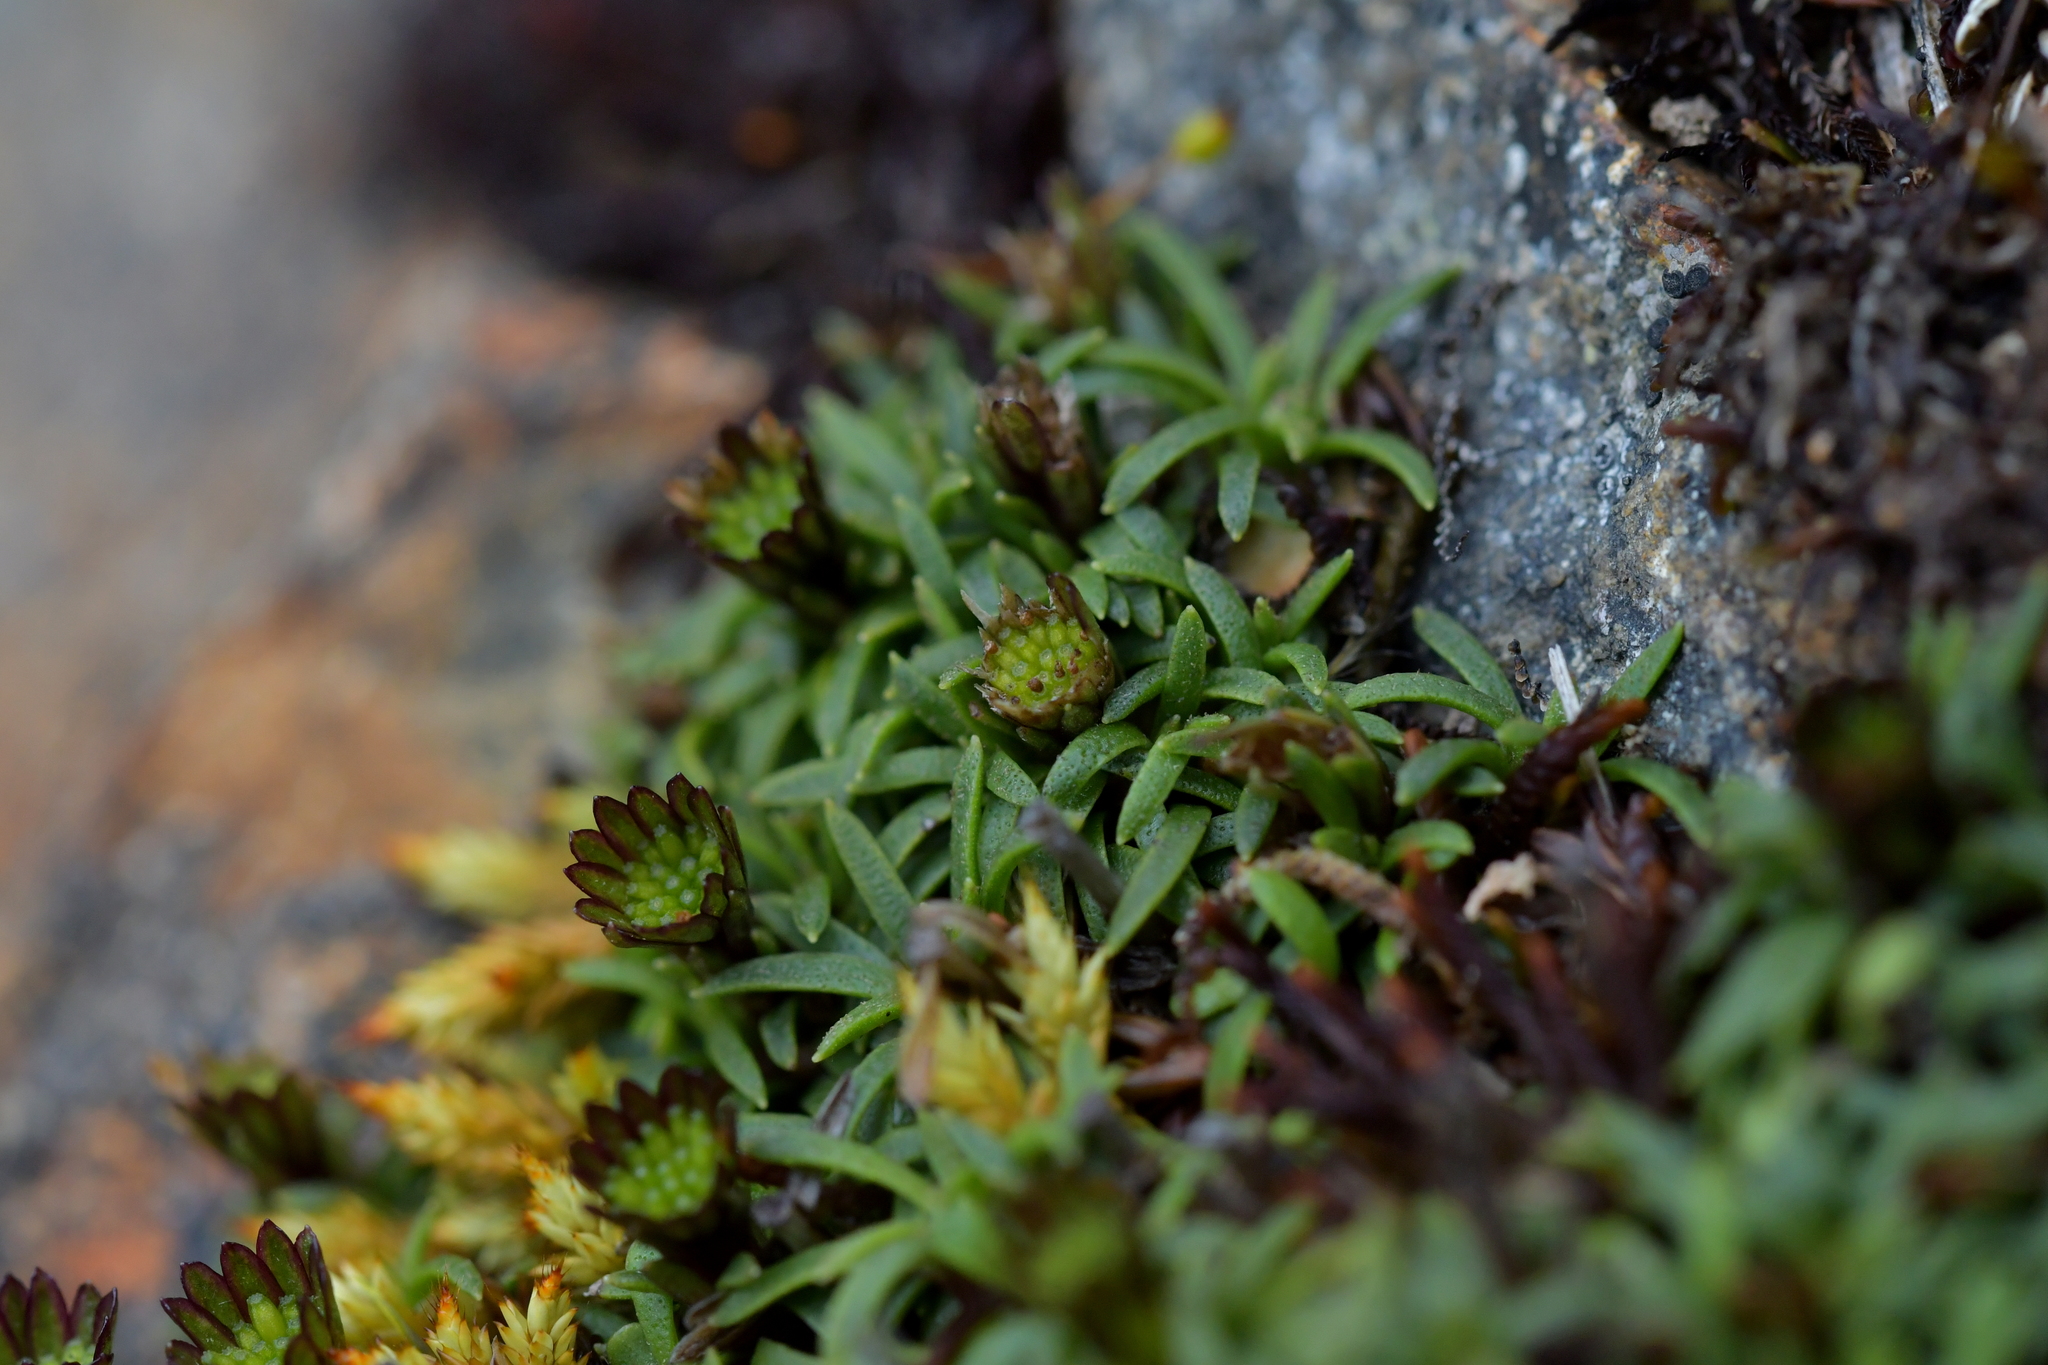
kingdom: Plantae
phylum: Tracheophyta
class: Magnoliopsida
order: Asterales
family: Asteraceae
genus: Abrotanella
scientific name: Abrotanella pusilla
